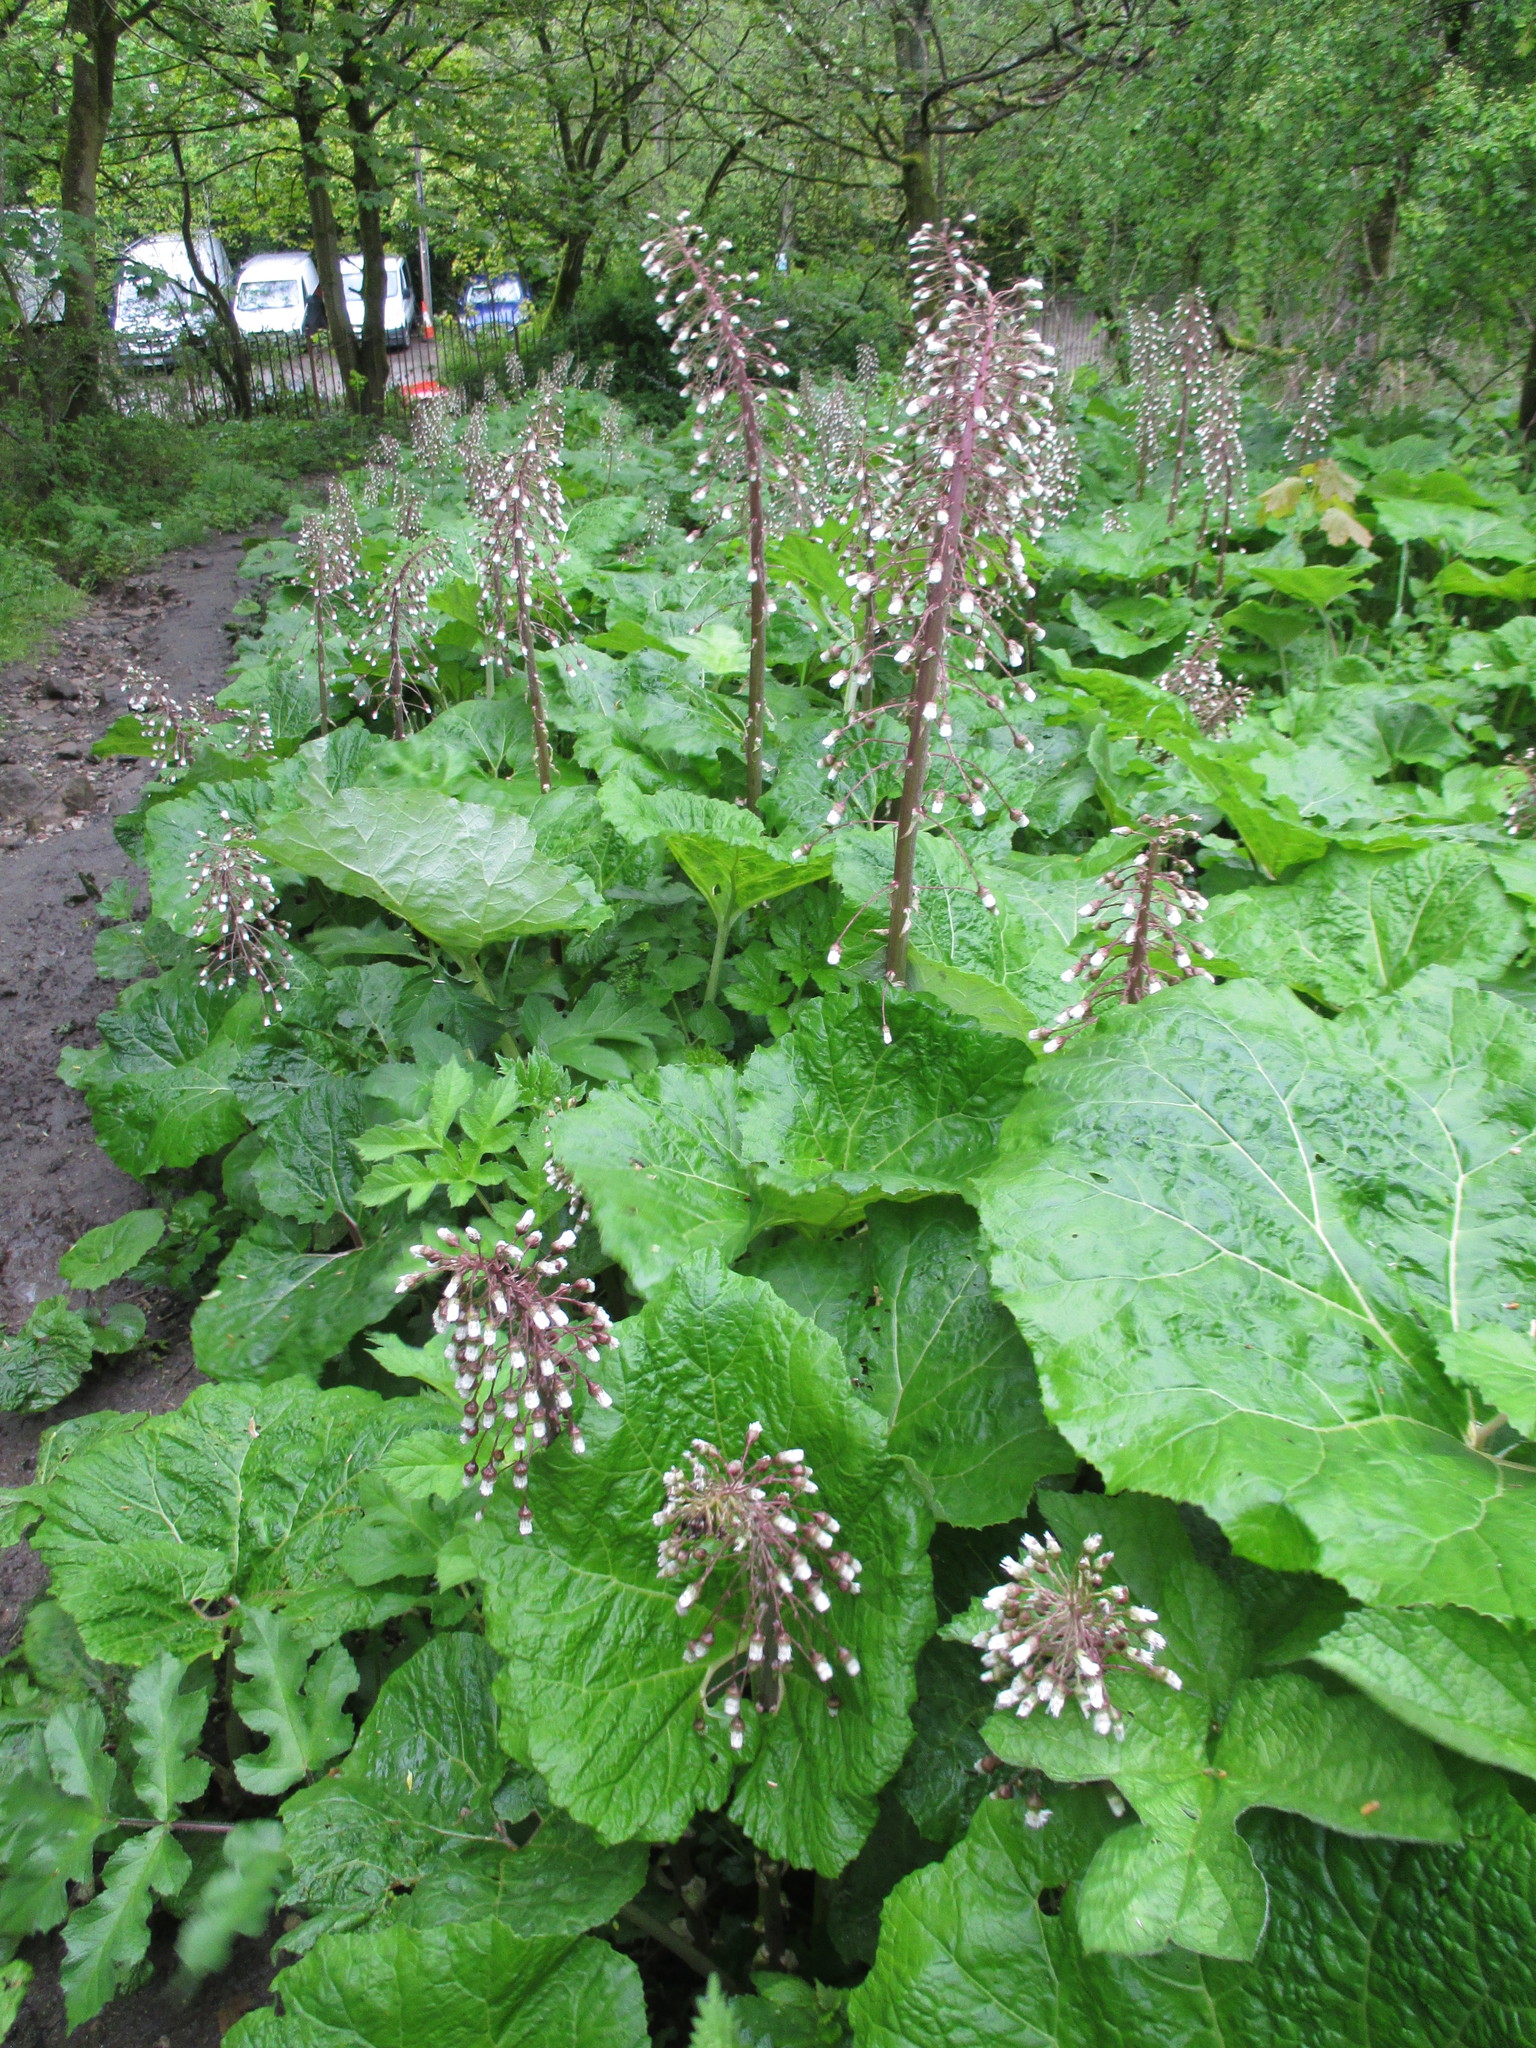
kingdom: Plantae
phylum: Tracheophyta
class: Magnoliopsida
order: Asterales
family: Asteraceae
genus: Petasites
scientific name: Petasites hybridus
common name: Butterbur
